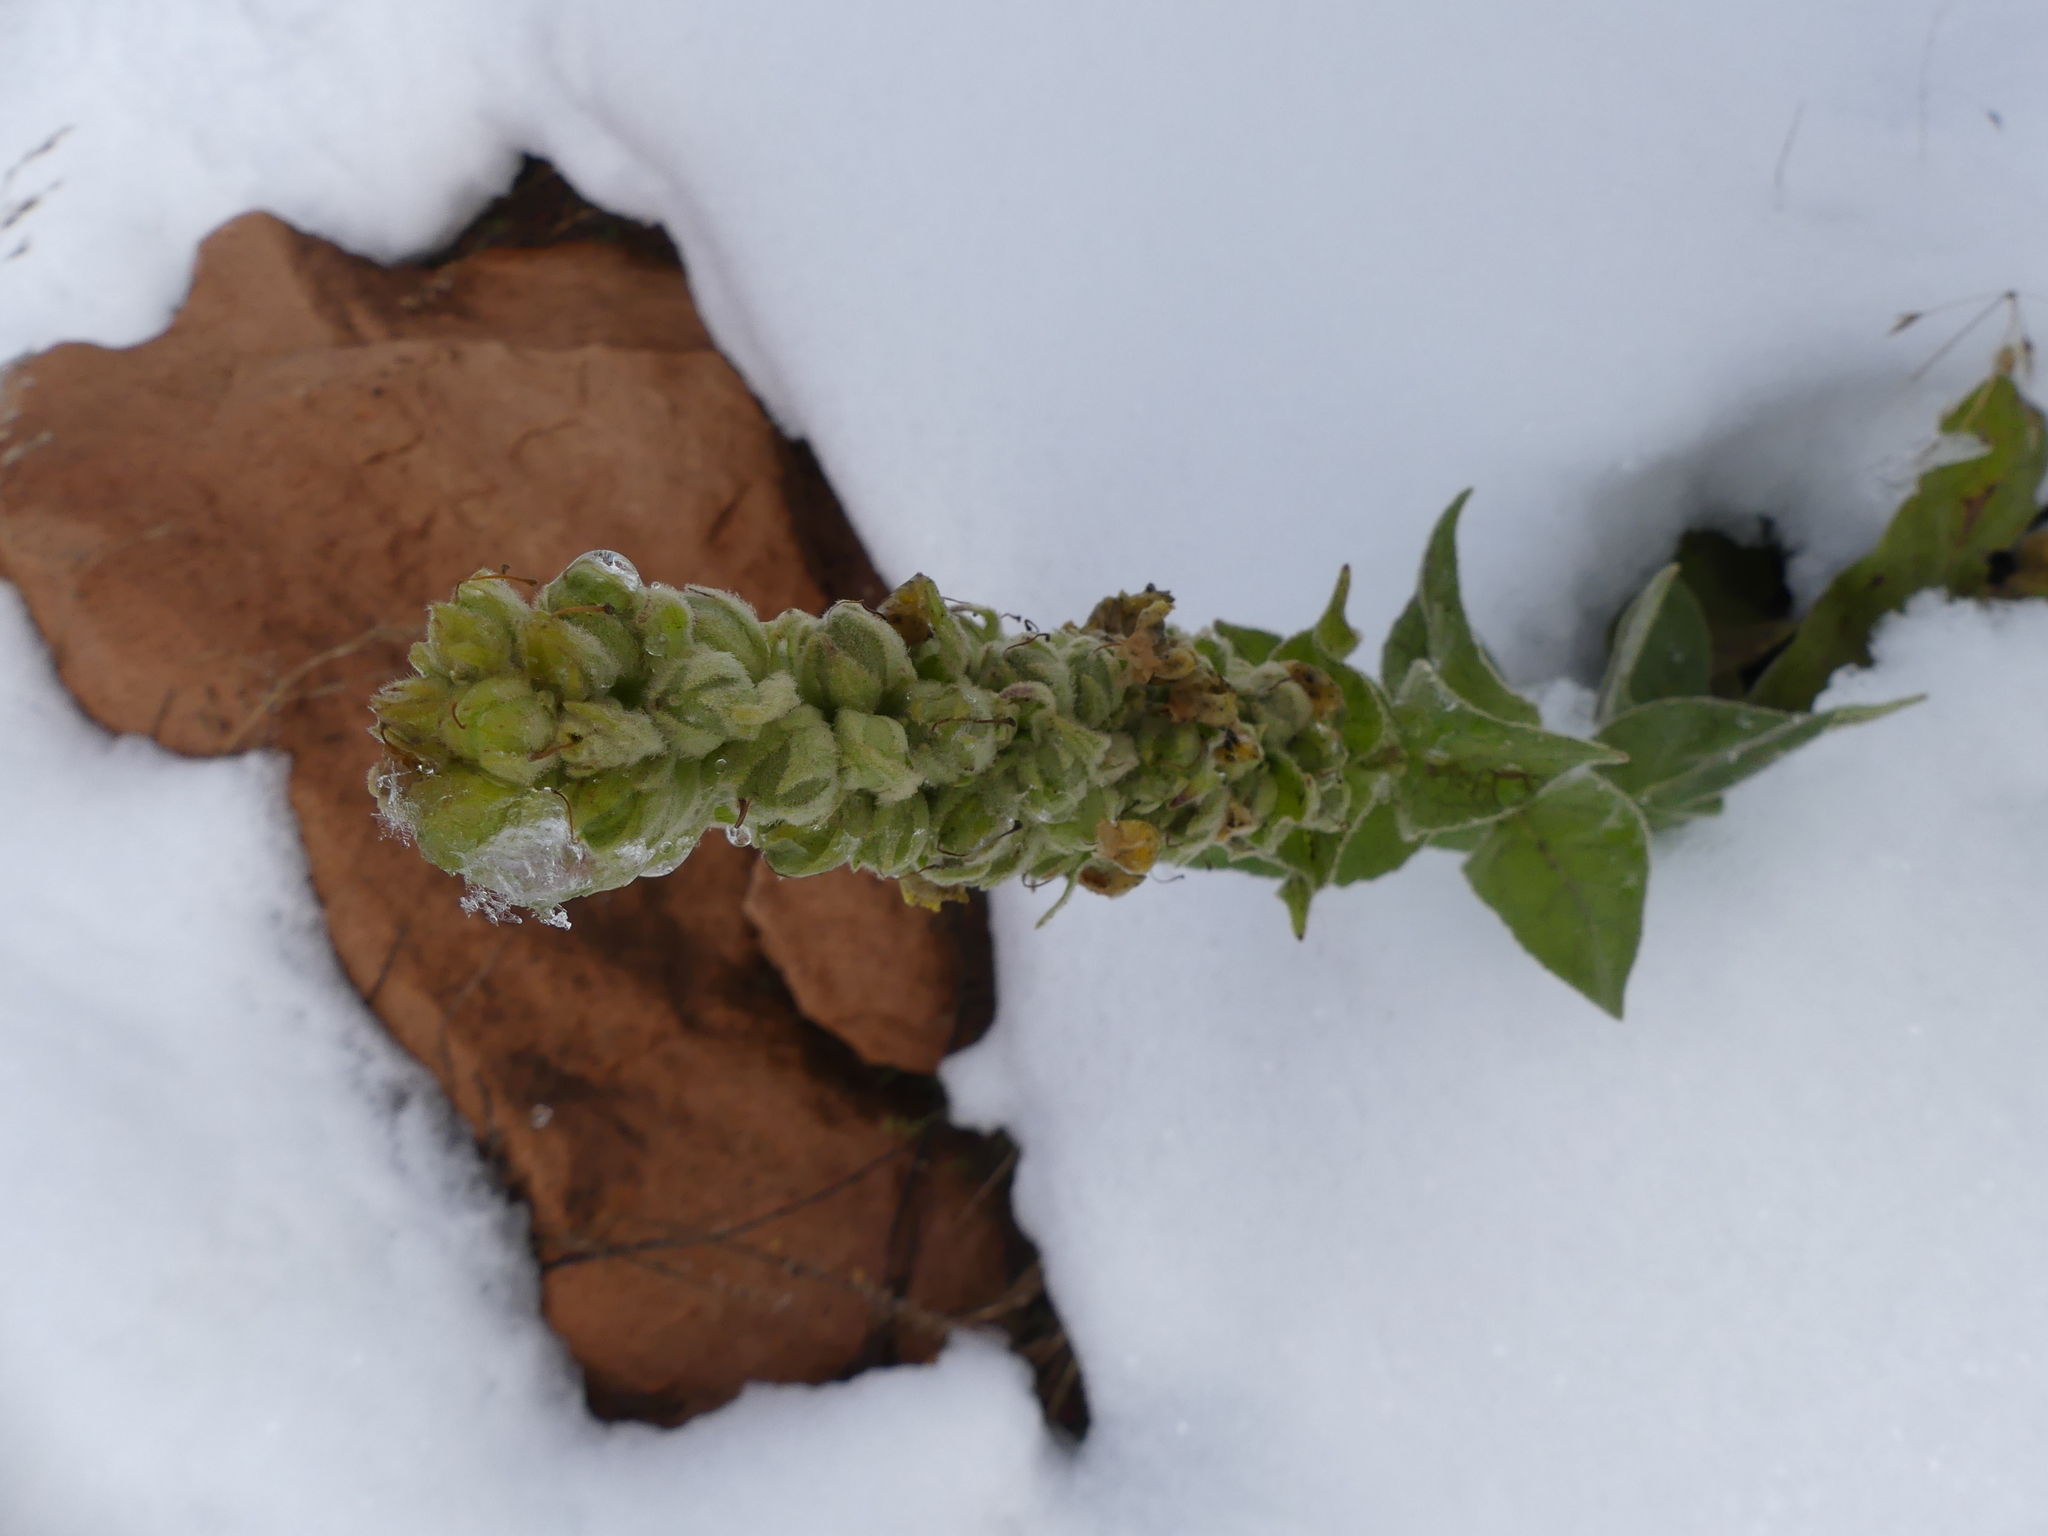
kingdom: Plantae
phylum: Tracheophyta
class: Magnoliopsida
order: Lamiales
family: Scrophulariaceae
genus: Verbascum
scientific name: Verbascum thapsus
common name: Common mullein
